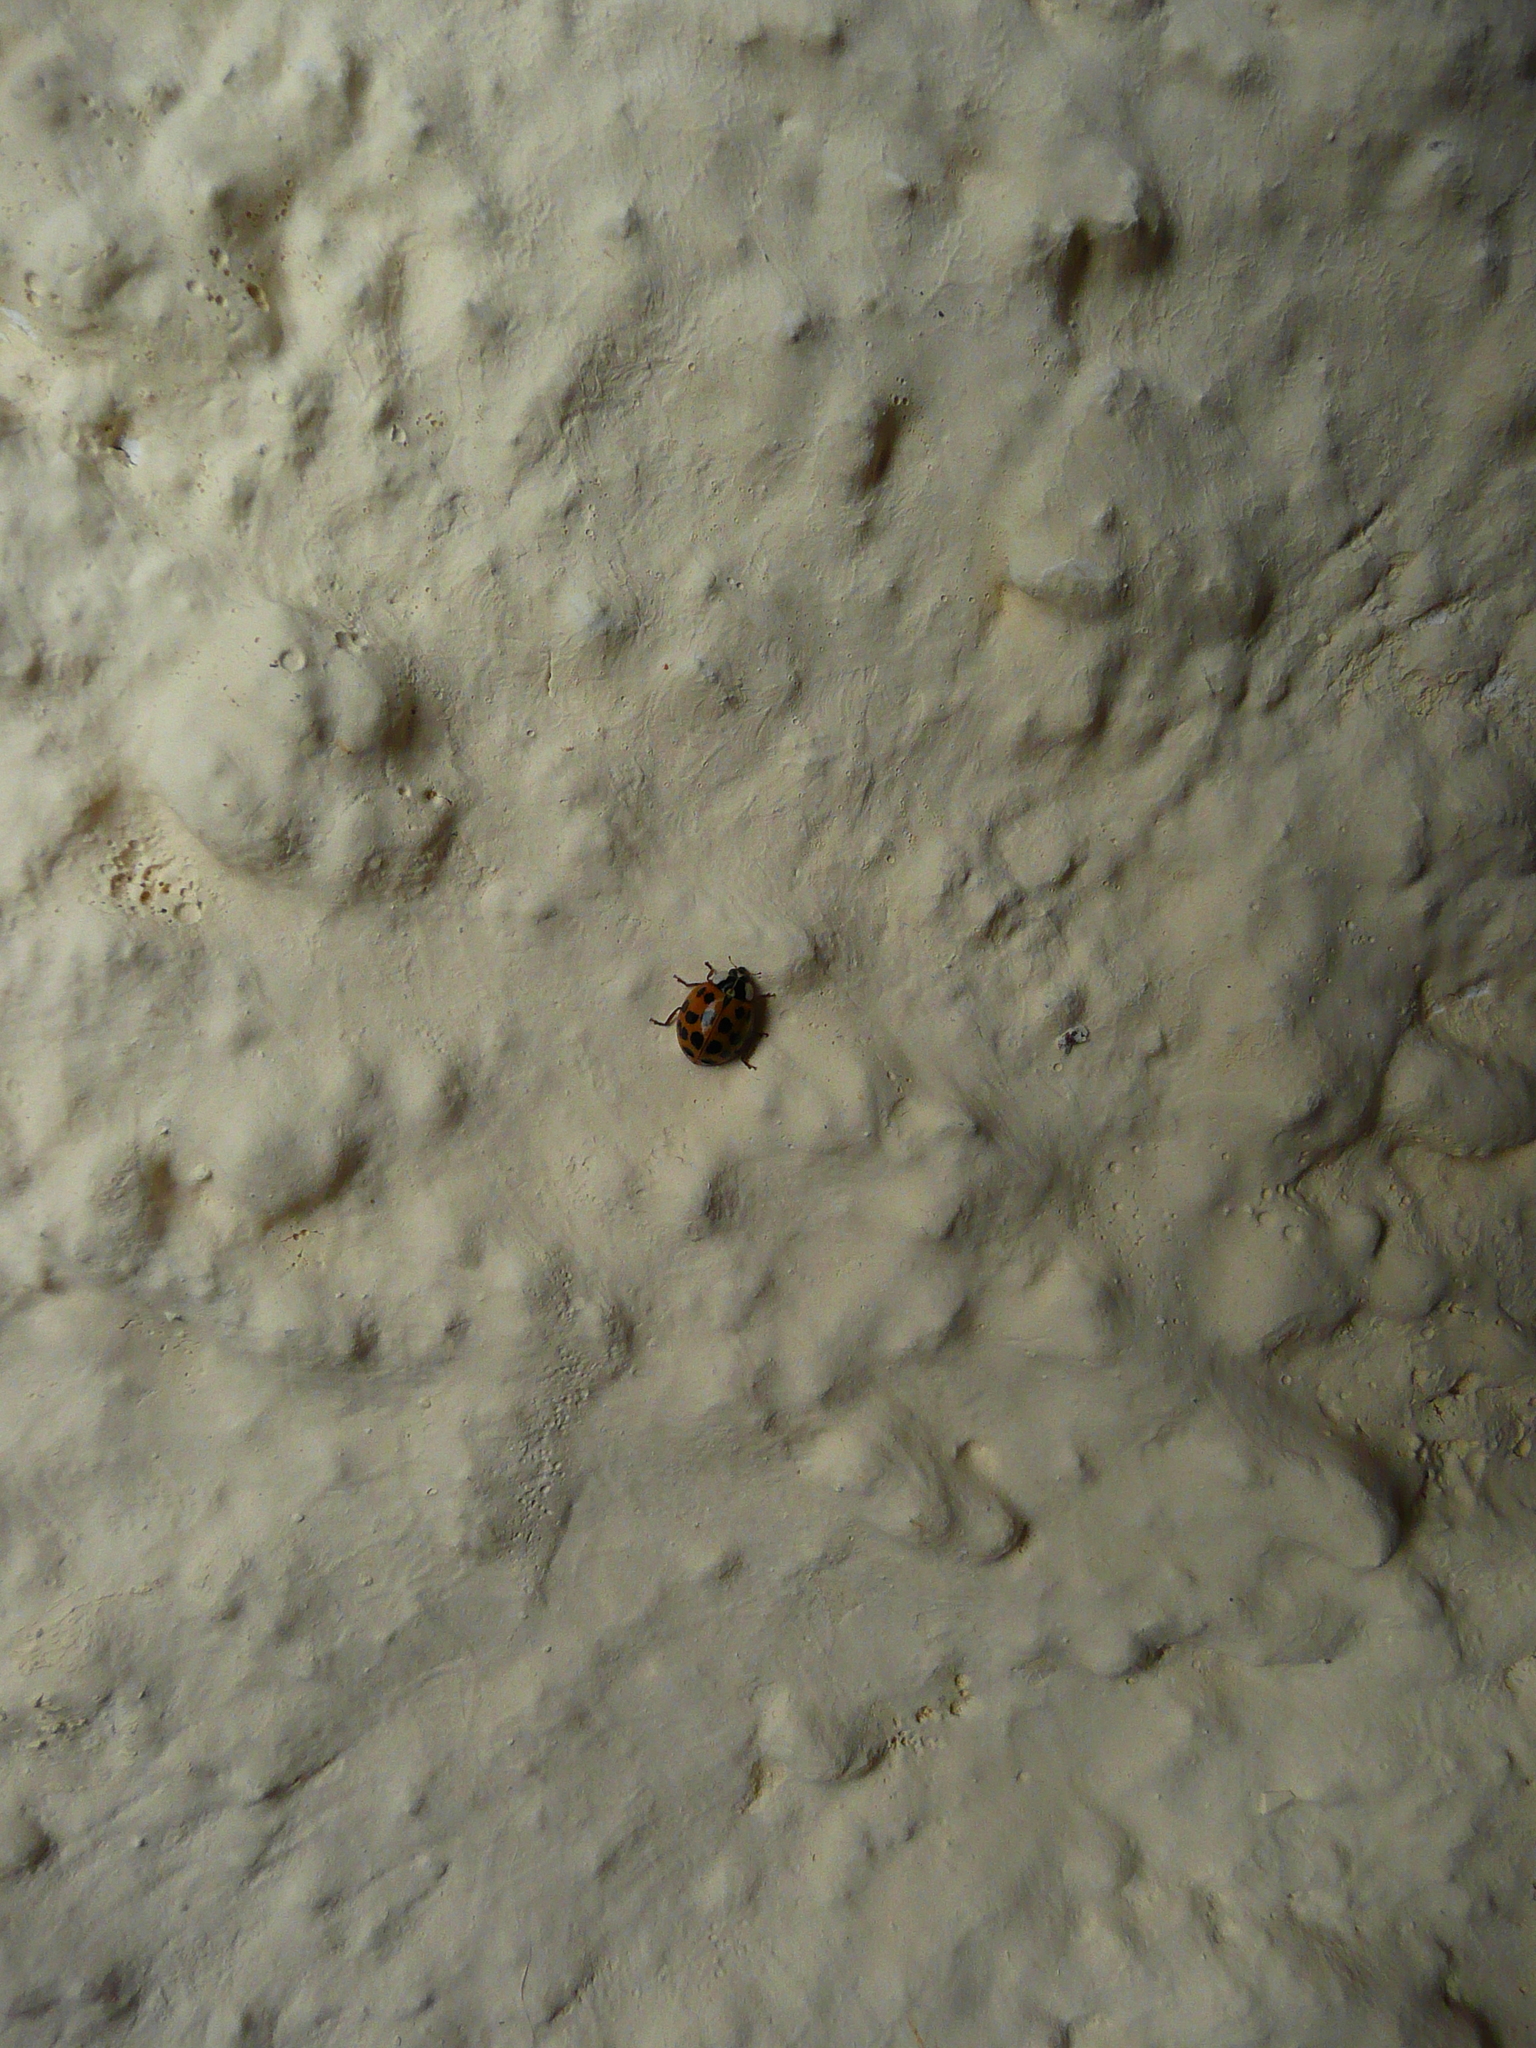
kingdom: Animalia
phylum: Arthropoda
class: Insecta
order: Coleoptera
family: Coccinellidae
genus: Harmonia
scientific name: Harmonia axyridis
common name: Harlequin ladybird
